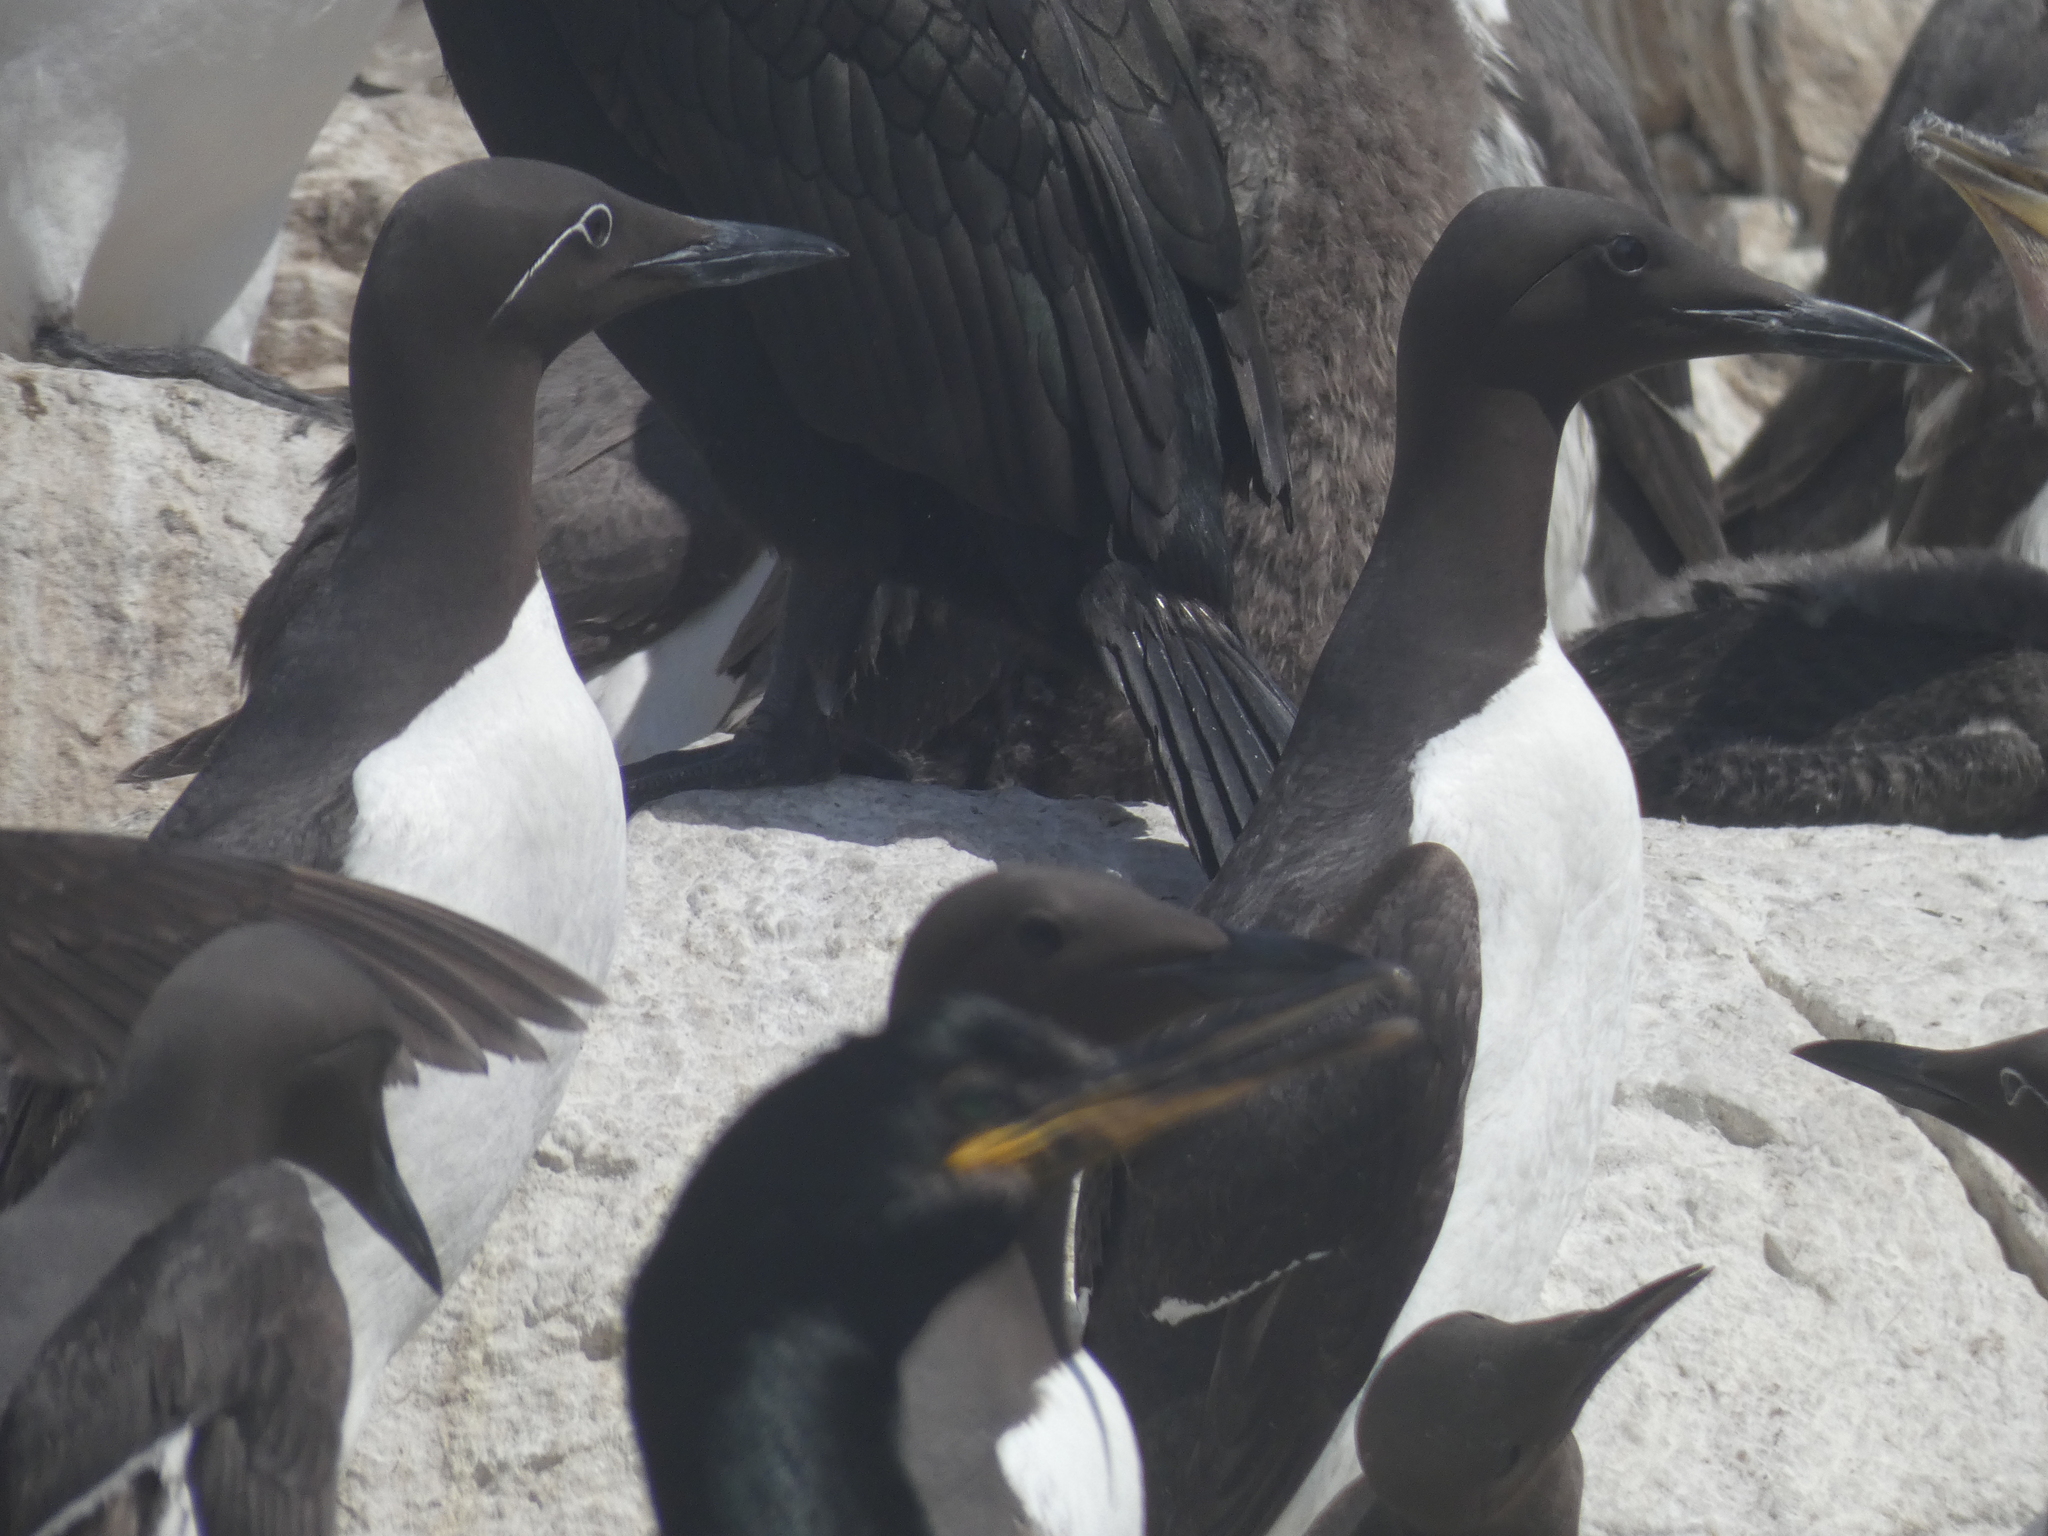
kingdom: Animalia
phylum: Chordata
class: Aves
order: Charadriiformes
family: Alcidae
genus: Uria
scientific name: Uria aalge
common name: Common murre
